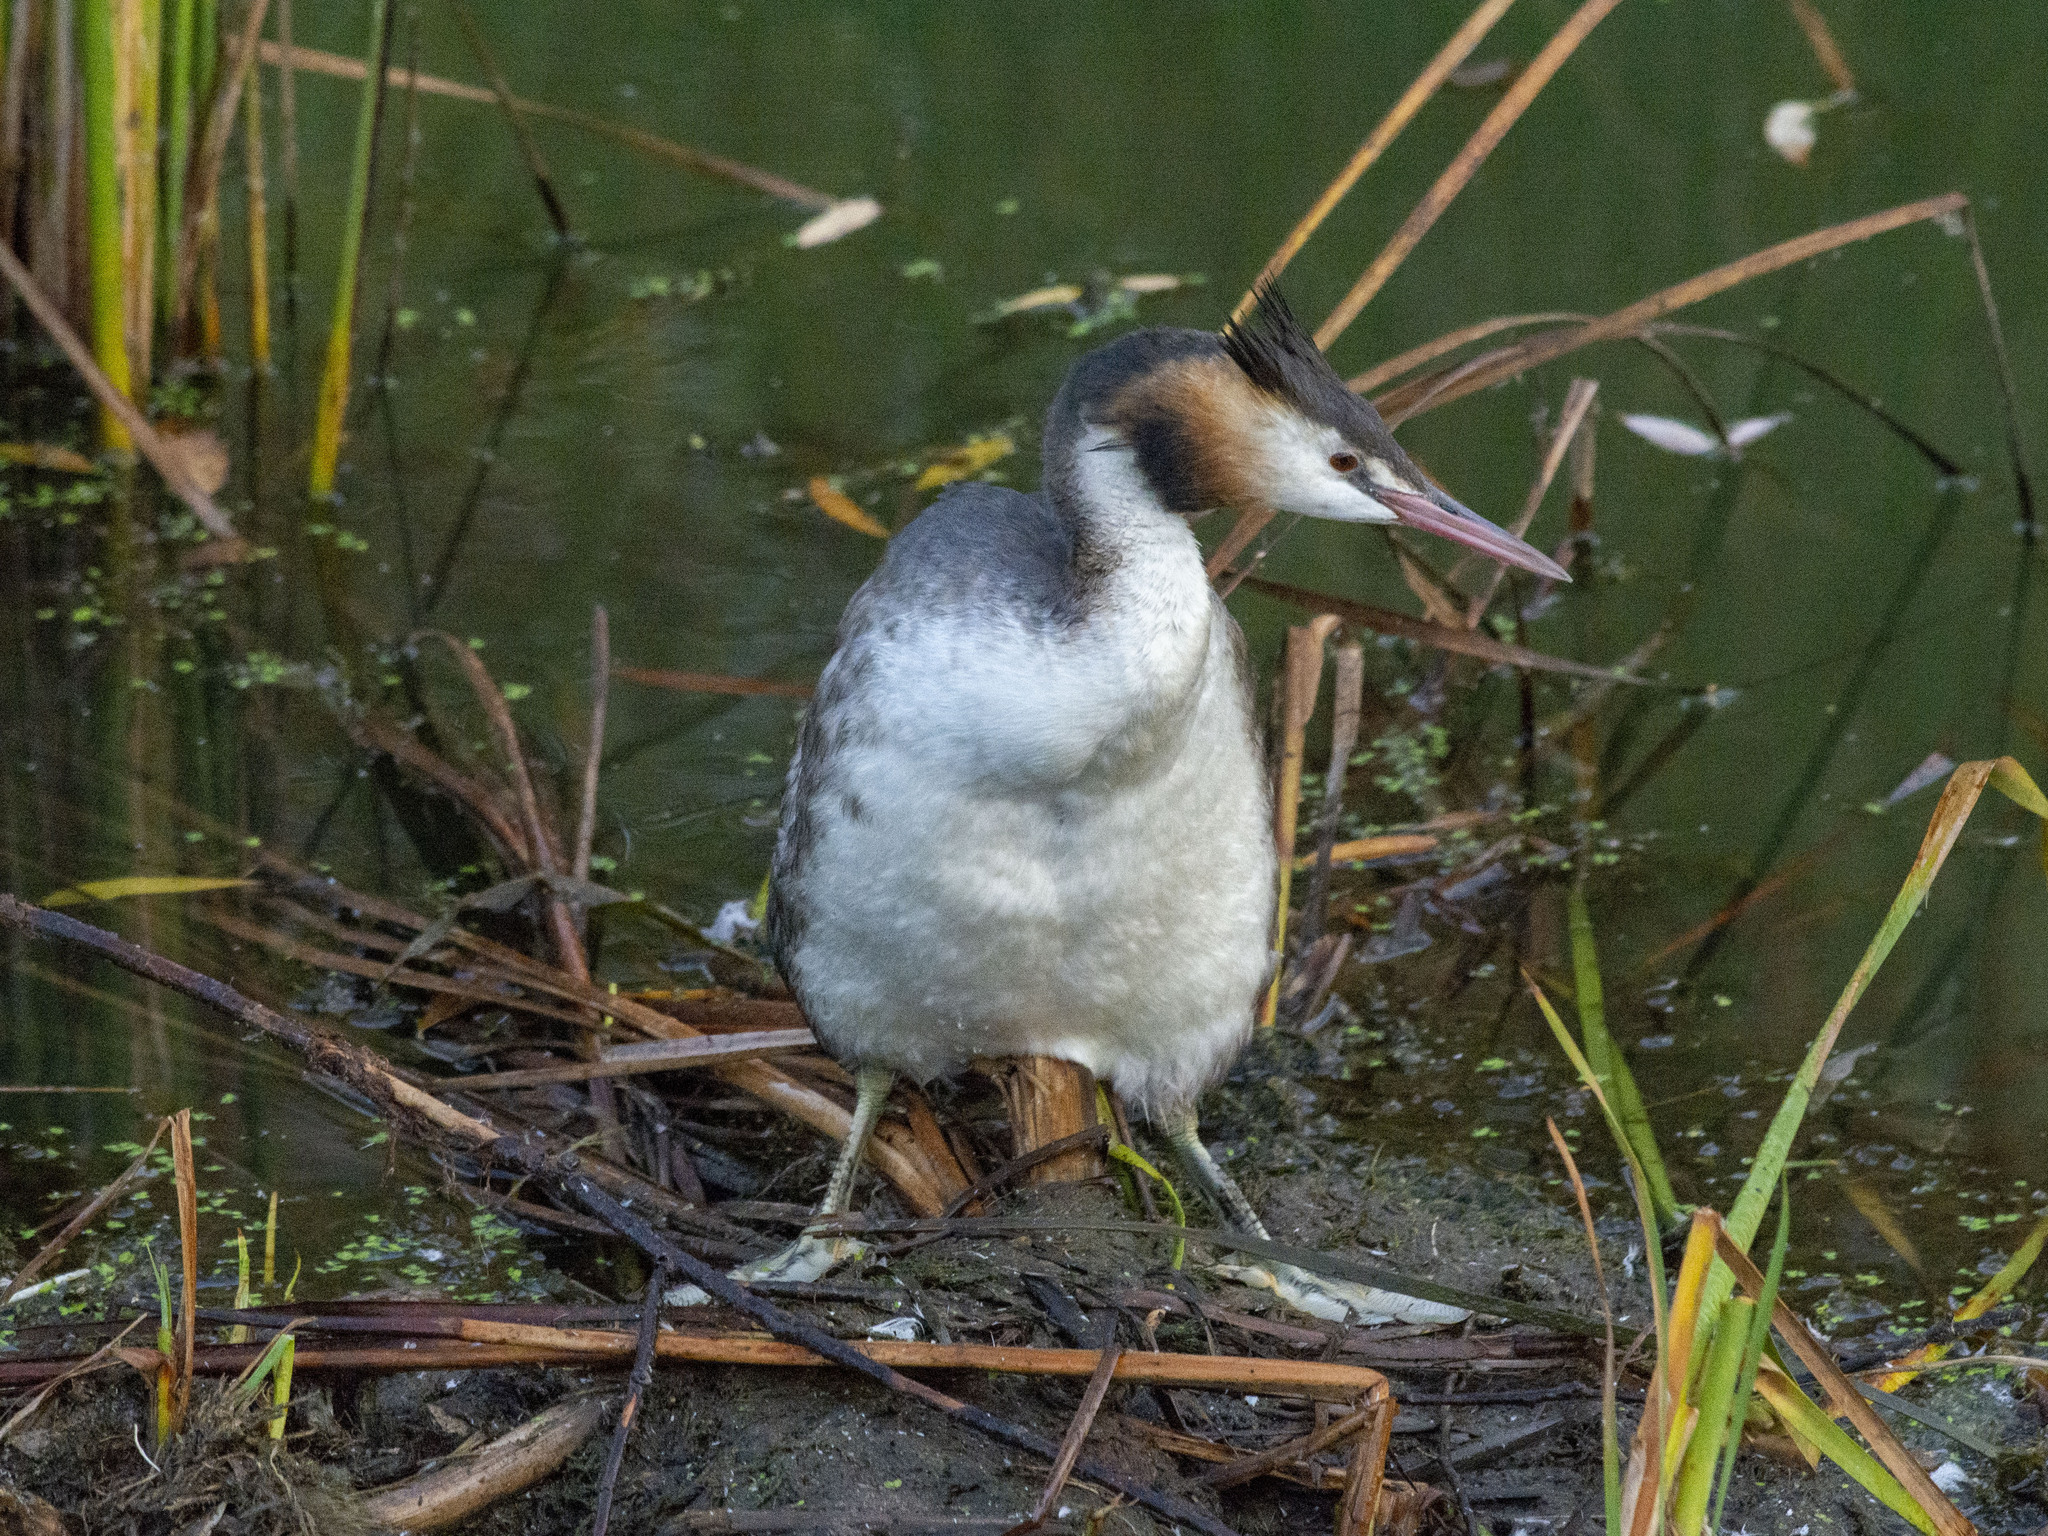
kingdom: Animalia
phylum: Chordata
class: Aves
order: Podicipediformes
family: Podicipedidae
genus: Podiceps
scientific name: Podiceps cristatus
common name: Great crested grebe
